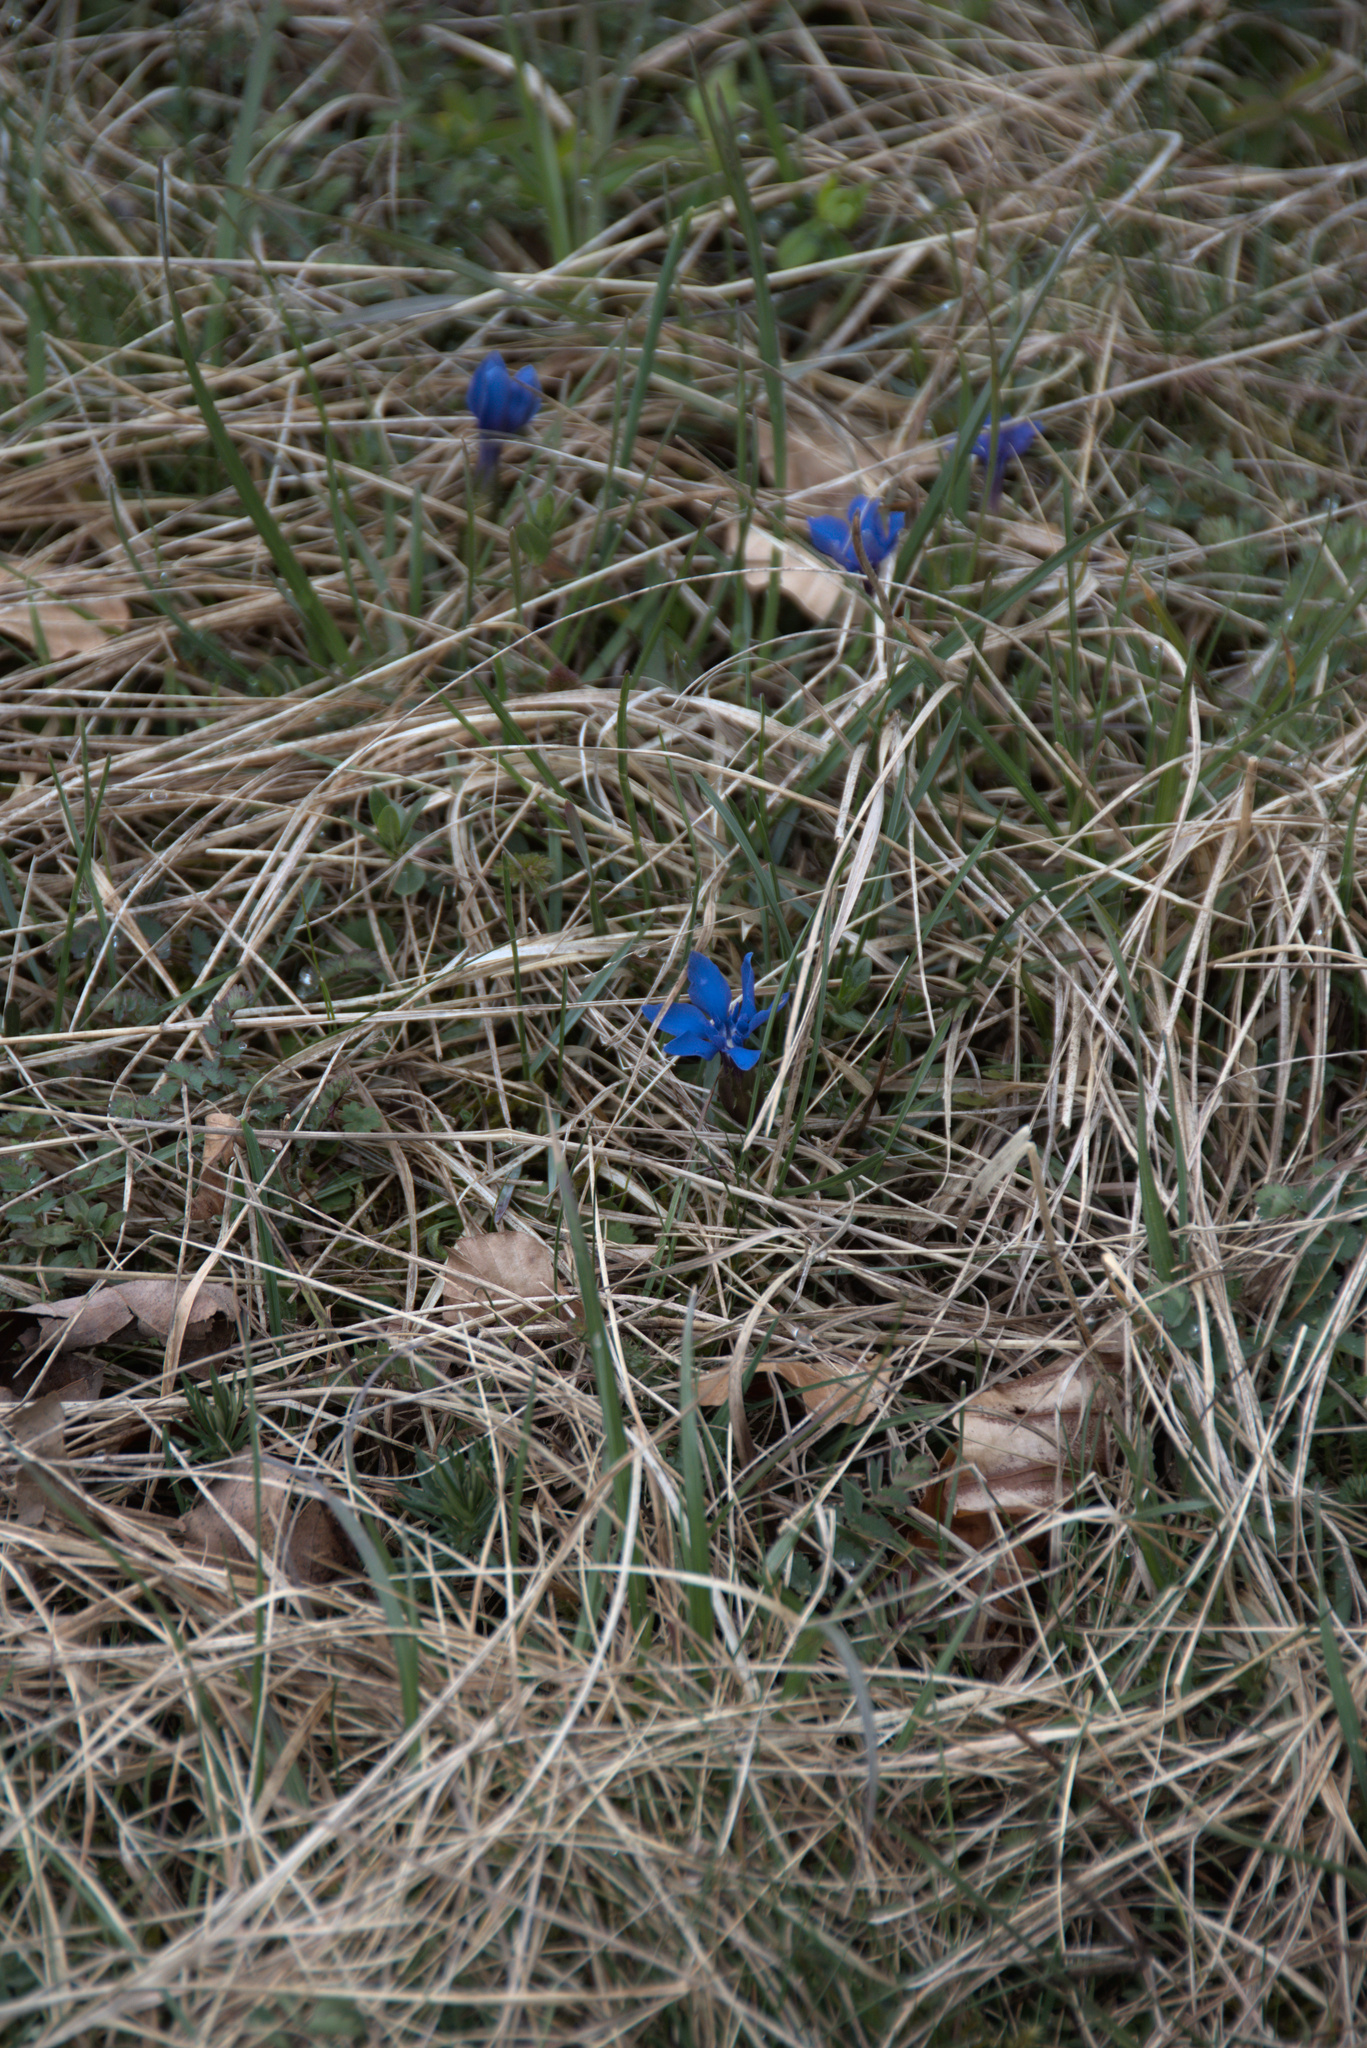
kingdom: Plantae
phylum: Tracheophyta
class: Magnoliopsida
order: Gentianales
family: Gentianaceae
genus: Gentiana
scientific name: Gentiana verna
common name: Spring gentian
